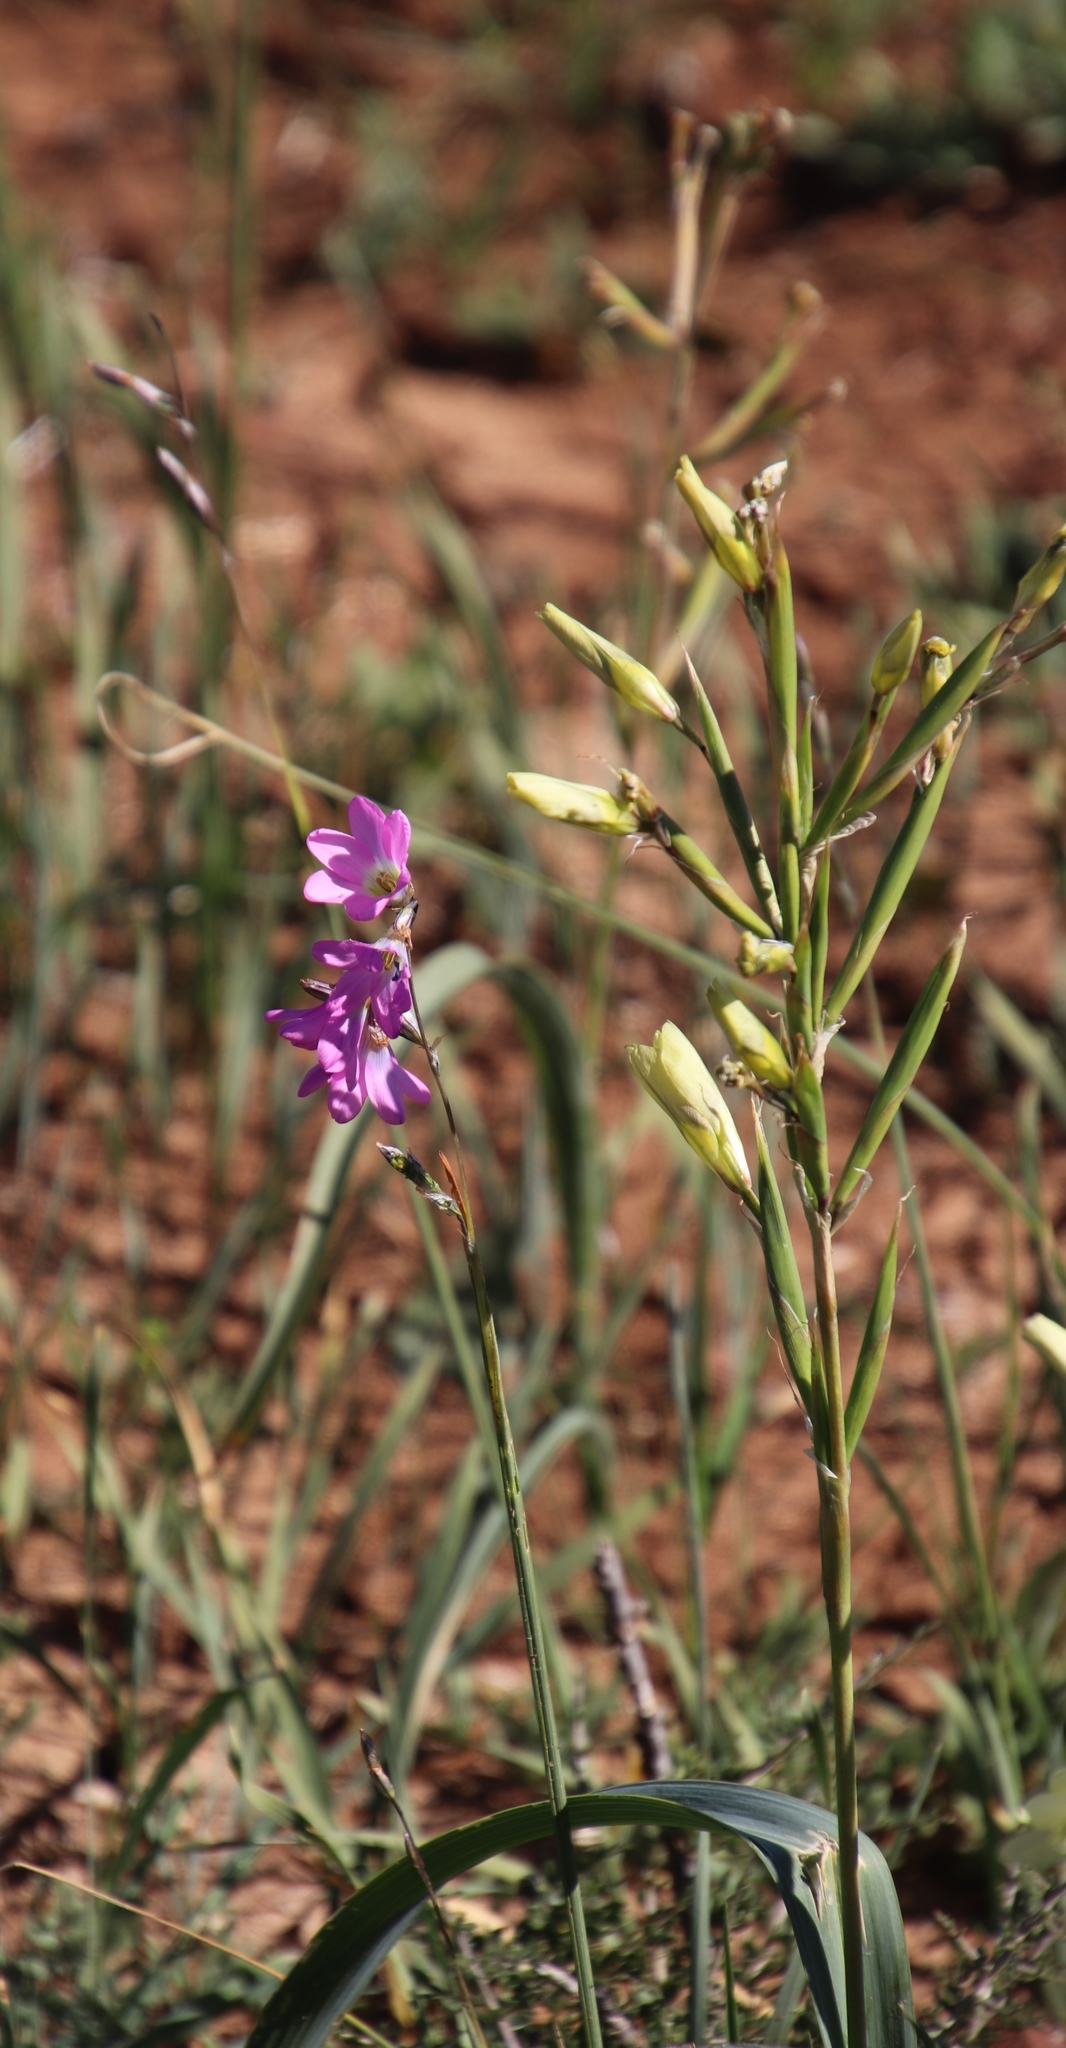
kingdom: Plantae
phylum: Tracheophyta
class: Liliopsida
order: Asparagales
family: Iridaceae
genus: Ixia
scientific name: Ixia rapunculoides
